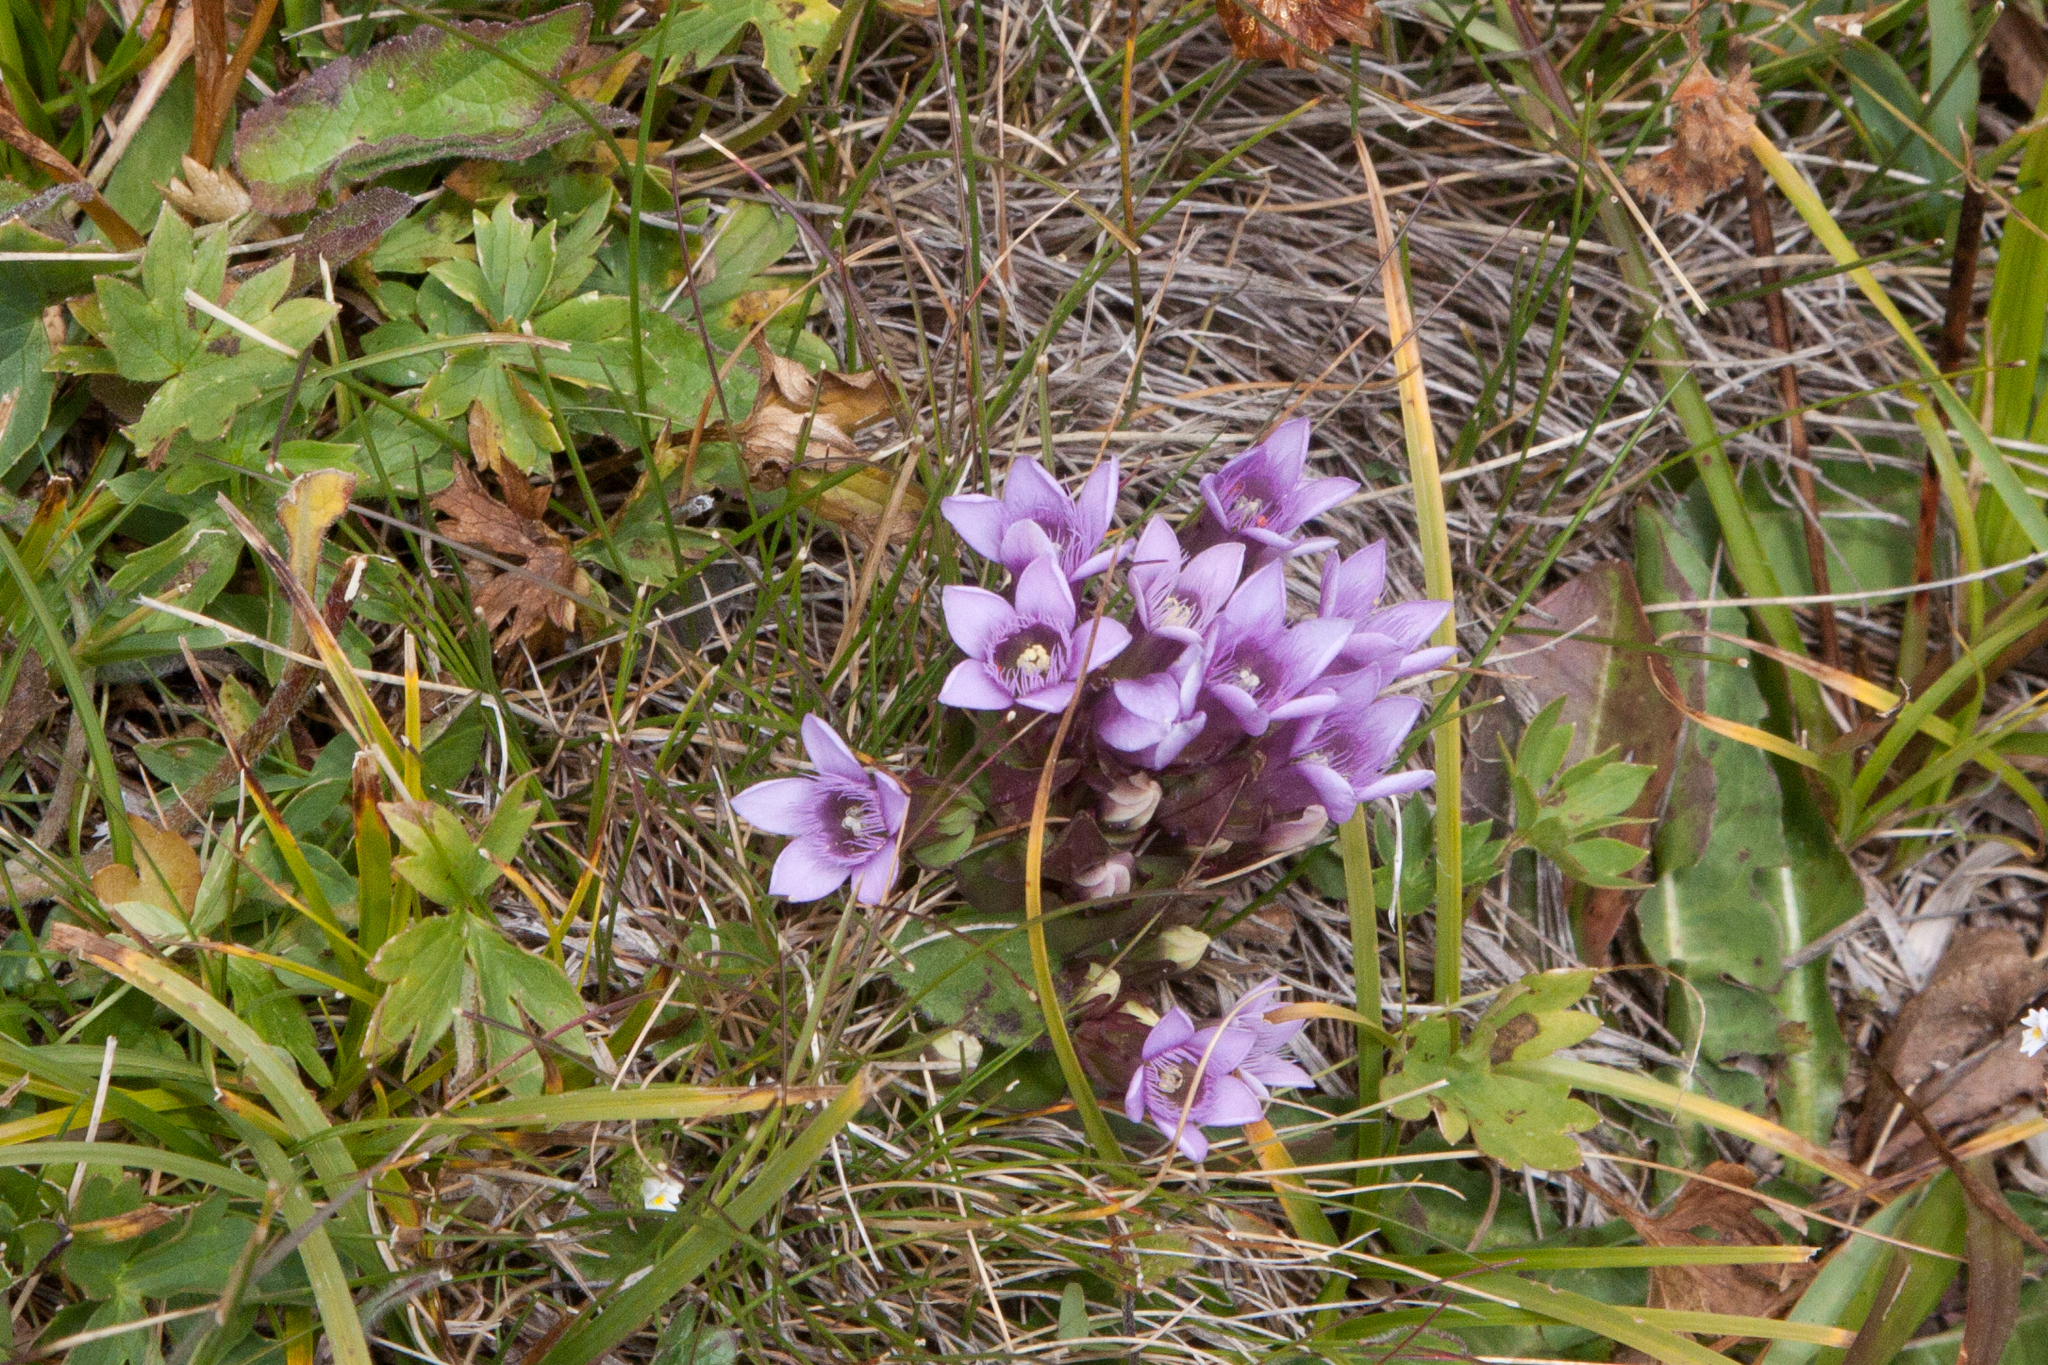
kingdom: Plantae
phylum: Tracheophyta
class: Magnoliopsida
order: Gentianales
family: Gentianaceae
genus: Gentianella
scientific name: Gentianella biebersteinii
